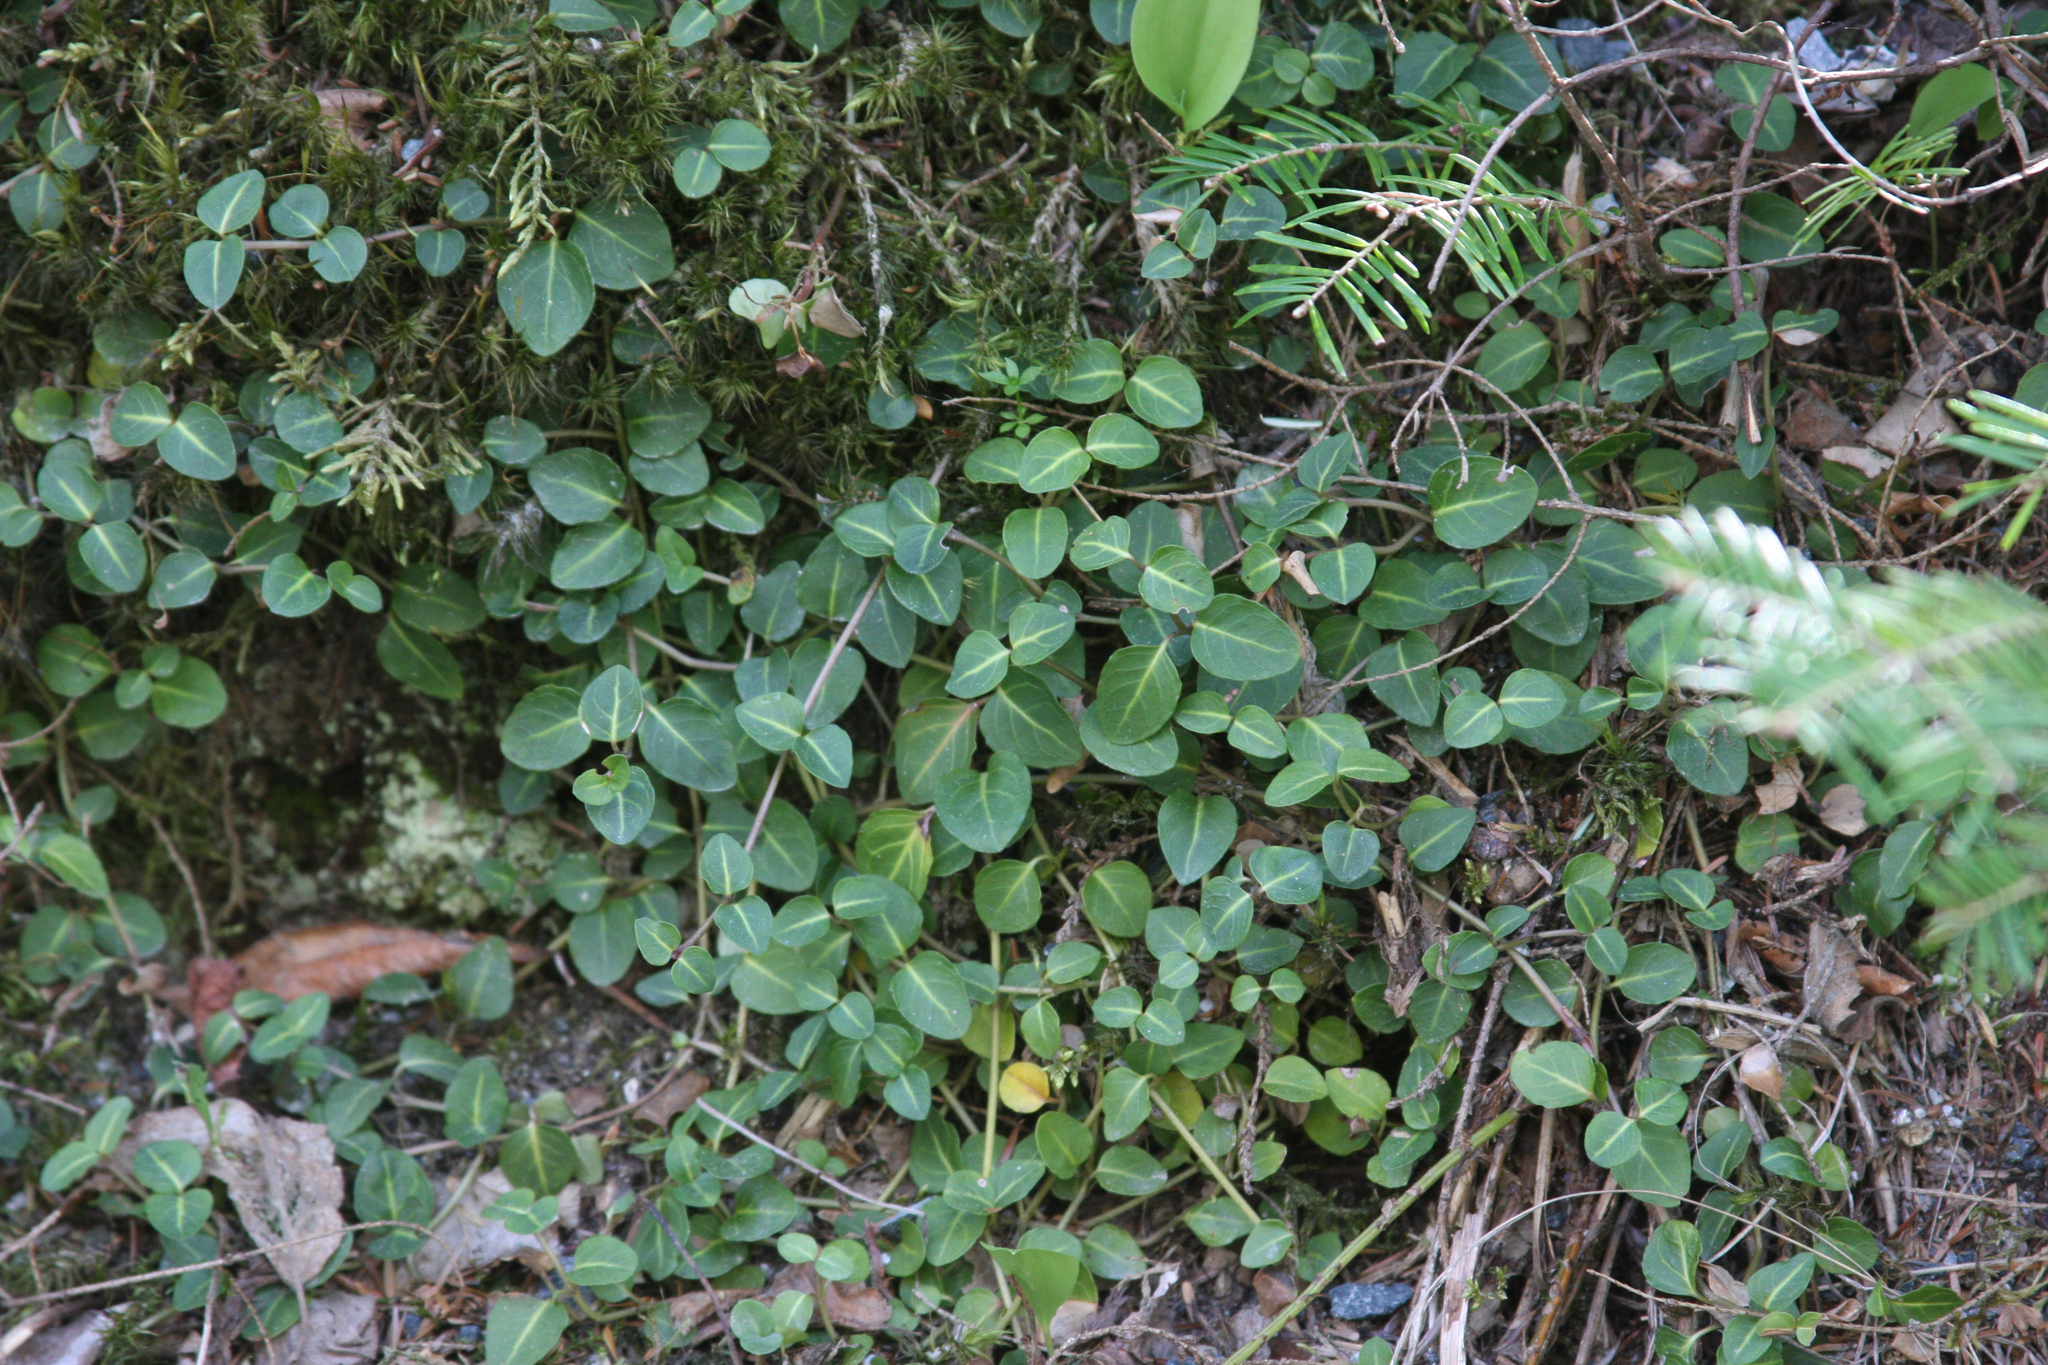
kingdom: Plantae
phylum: Tracheophyta
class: Magnoliopsida
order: Gentianales
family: Rubiaceae
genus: Mitchella
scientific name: Mitchella repens
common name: Partridge-berry
